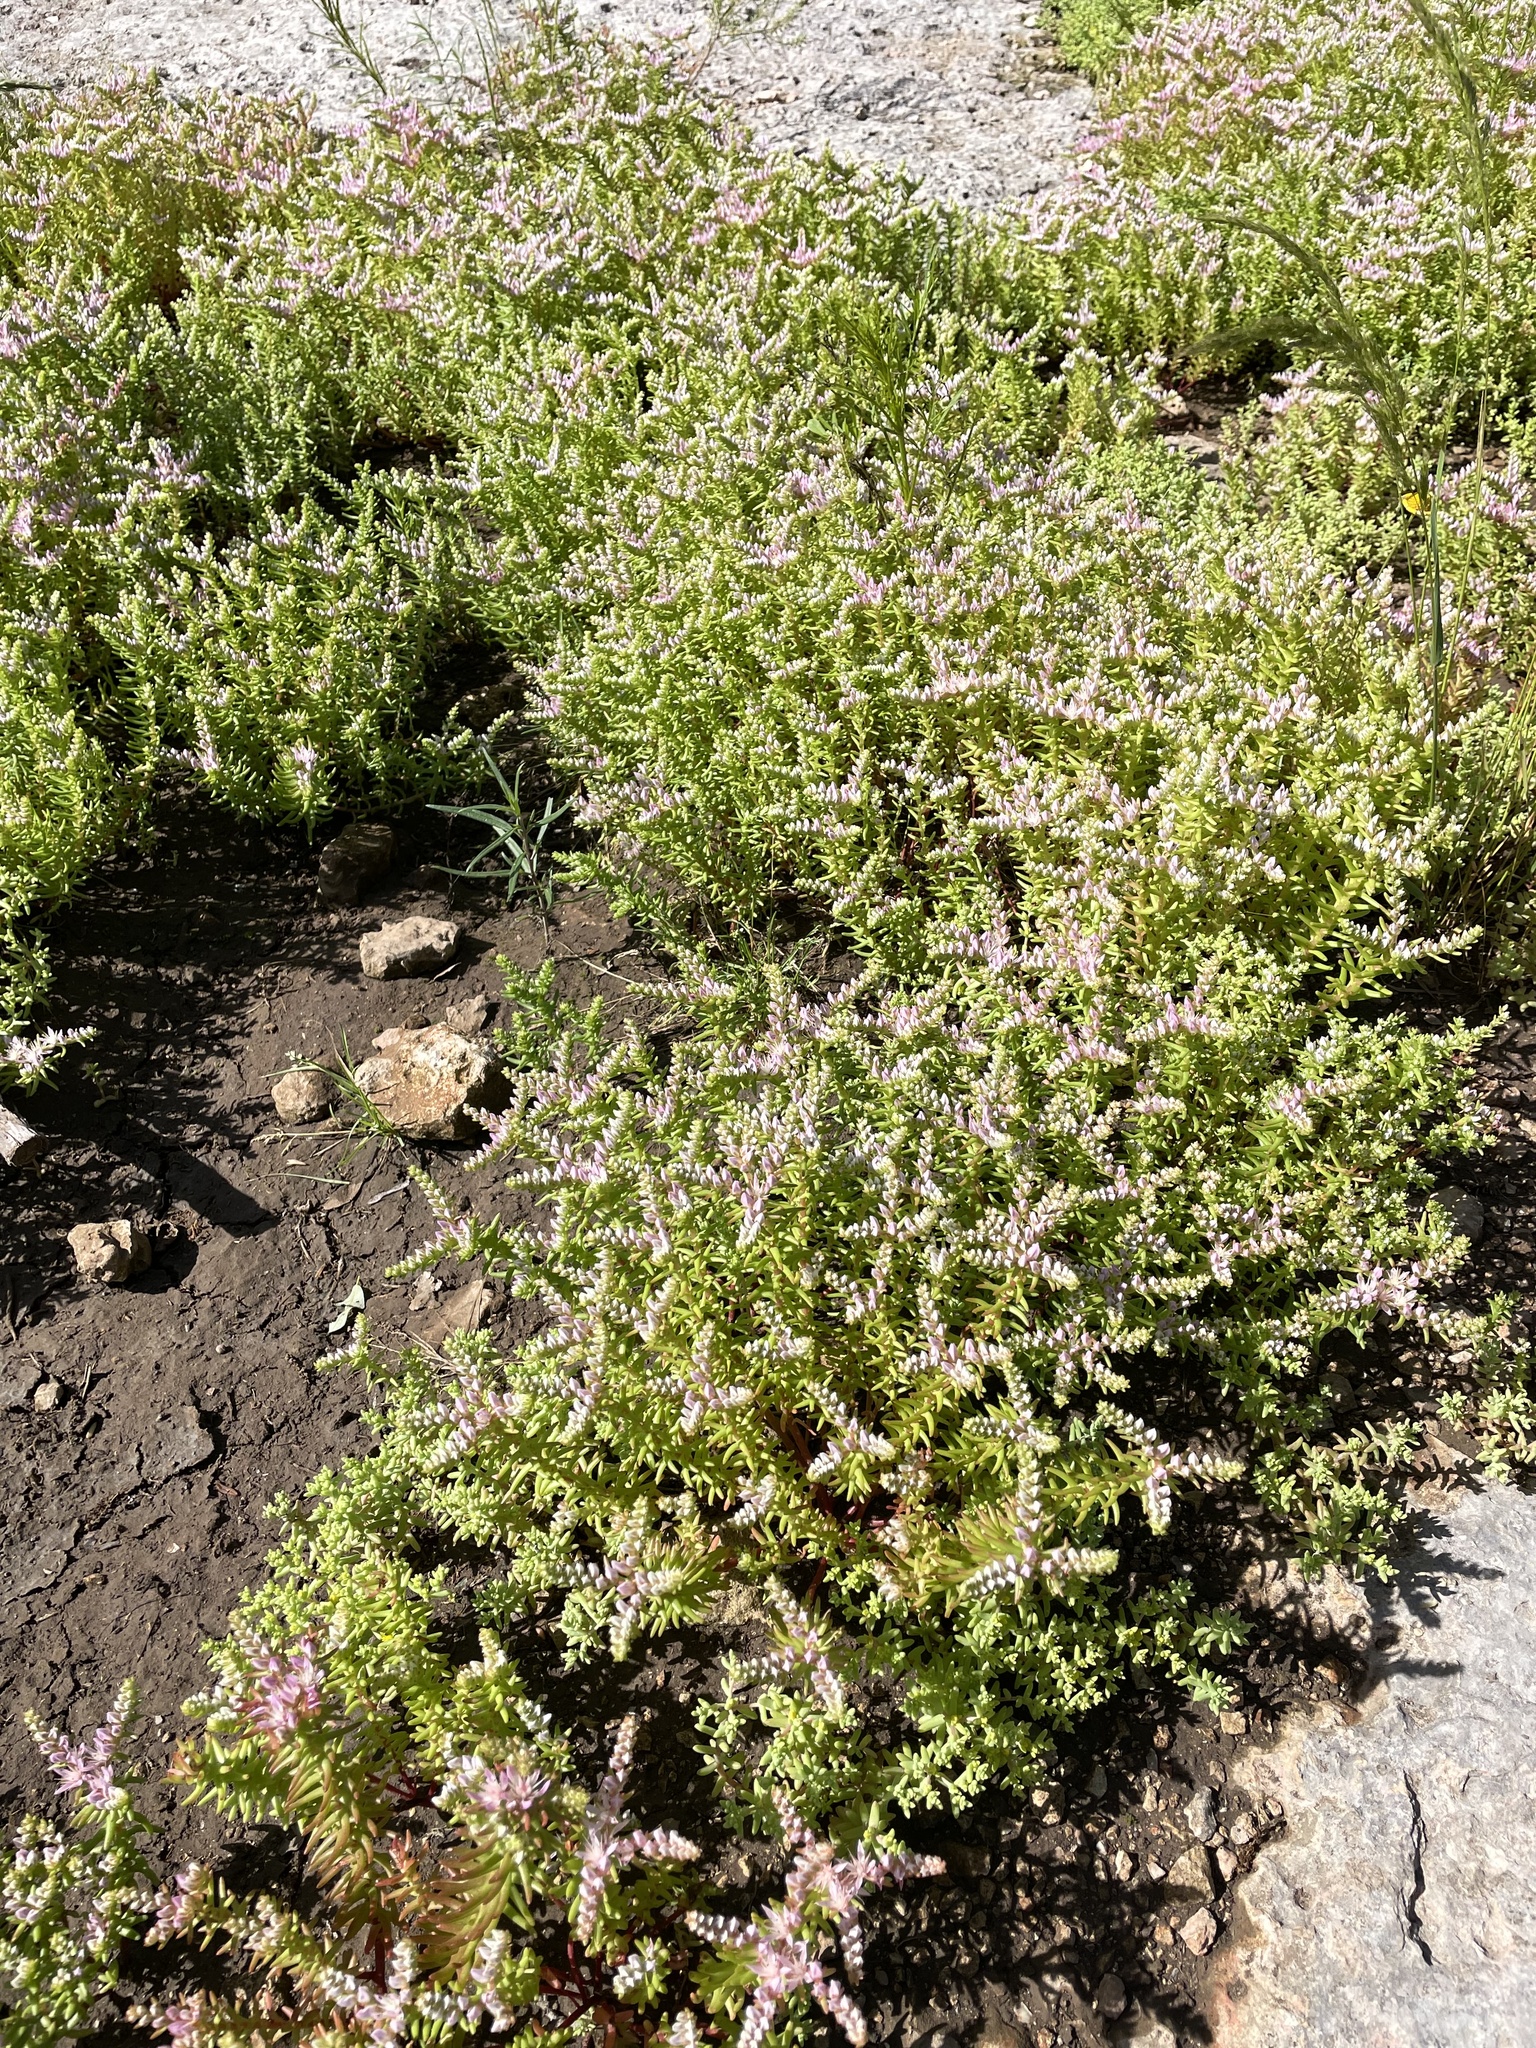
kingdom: Plantae
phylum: Tracheophyta
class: Magnoliopsida
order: Saxifragales
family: Crassulaceae
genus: Sedum
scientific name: Sedum pulchellum
